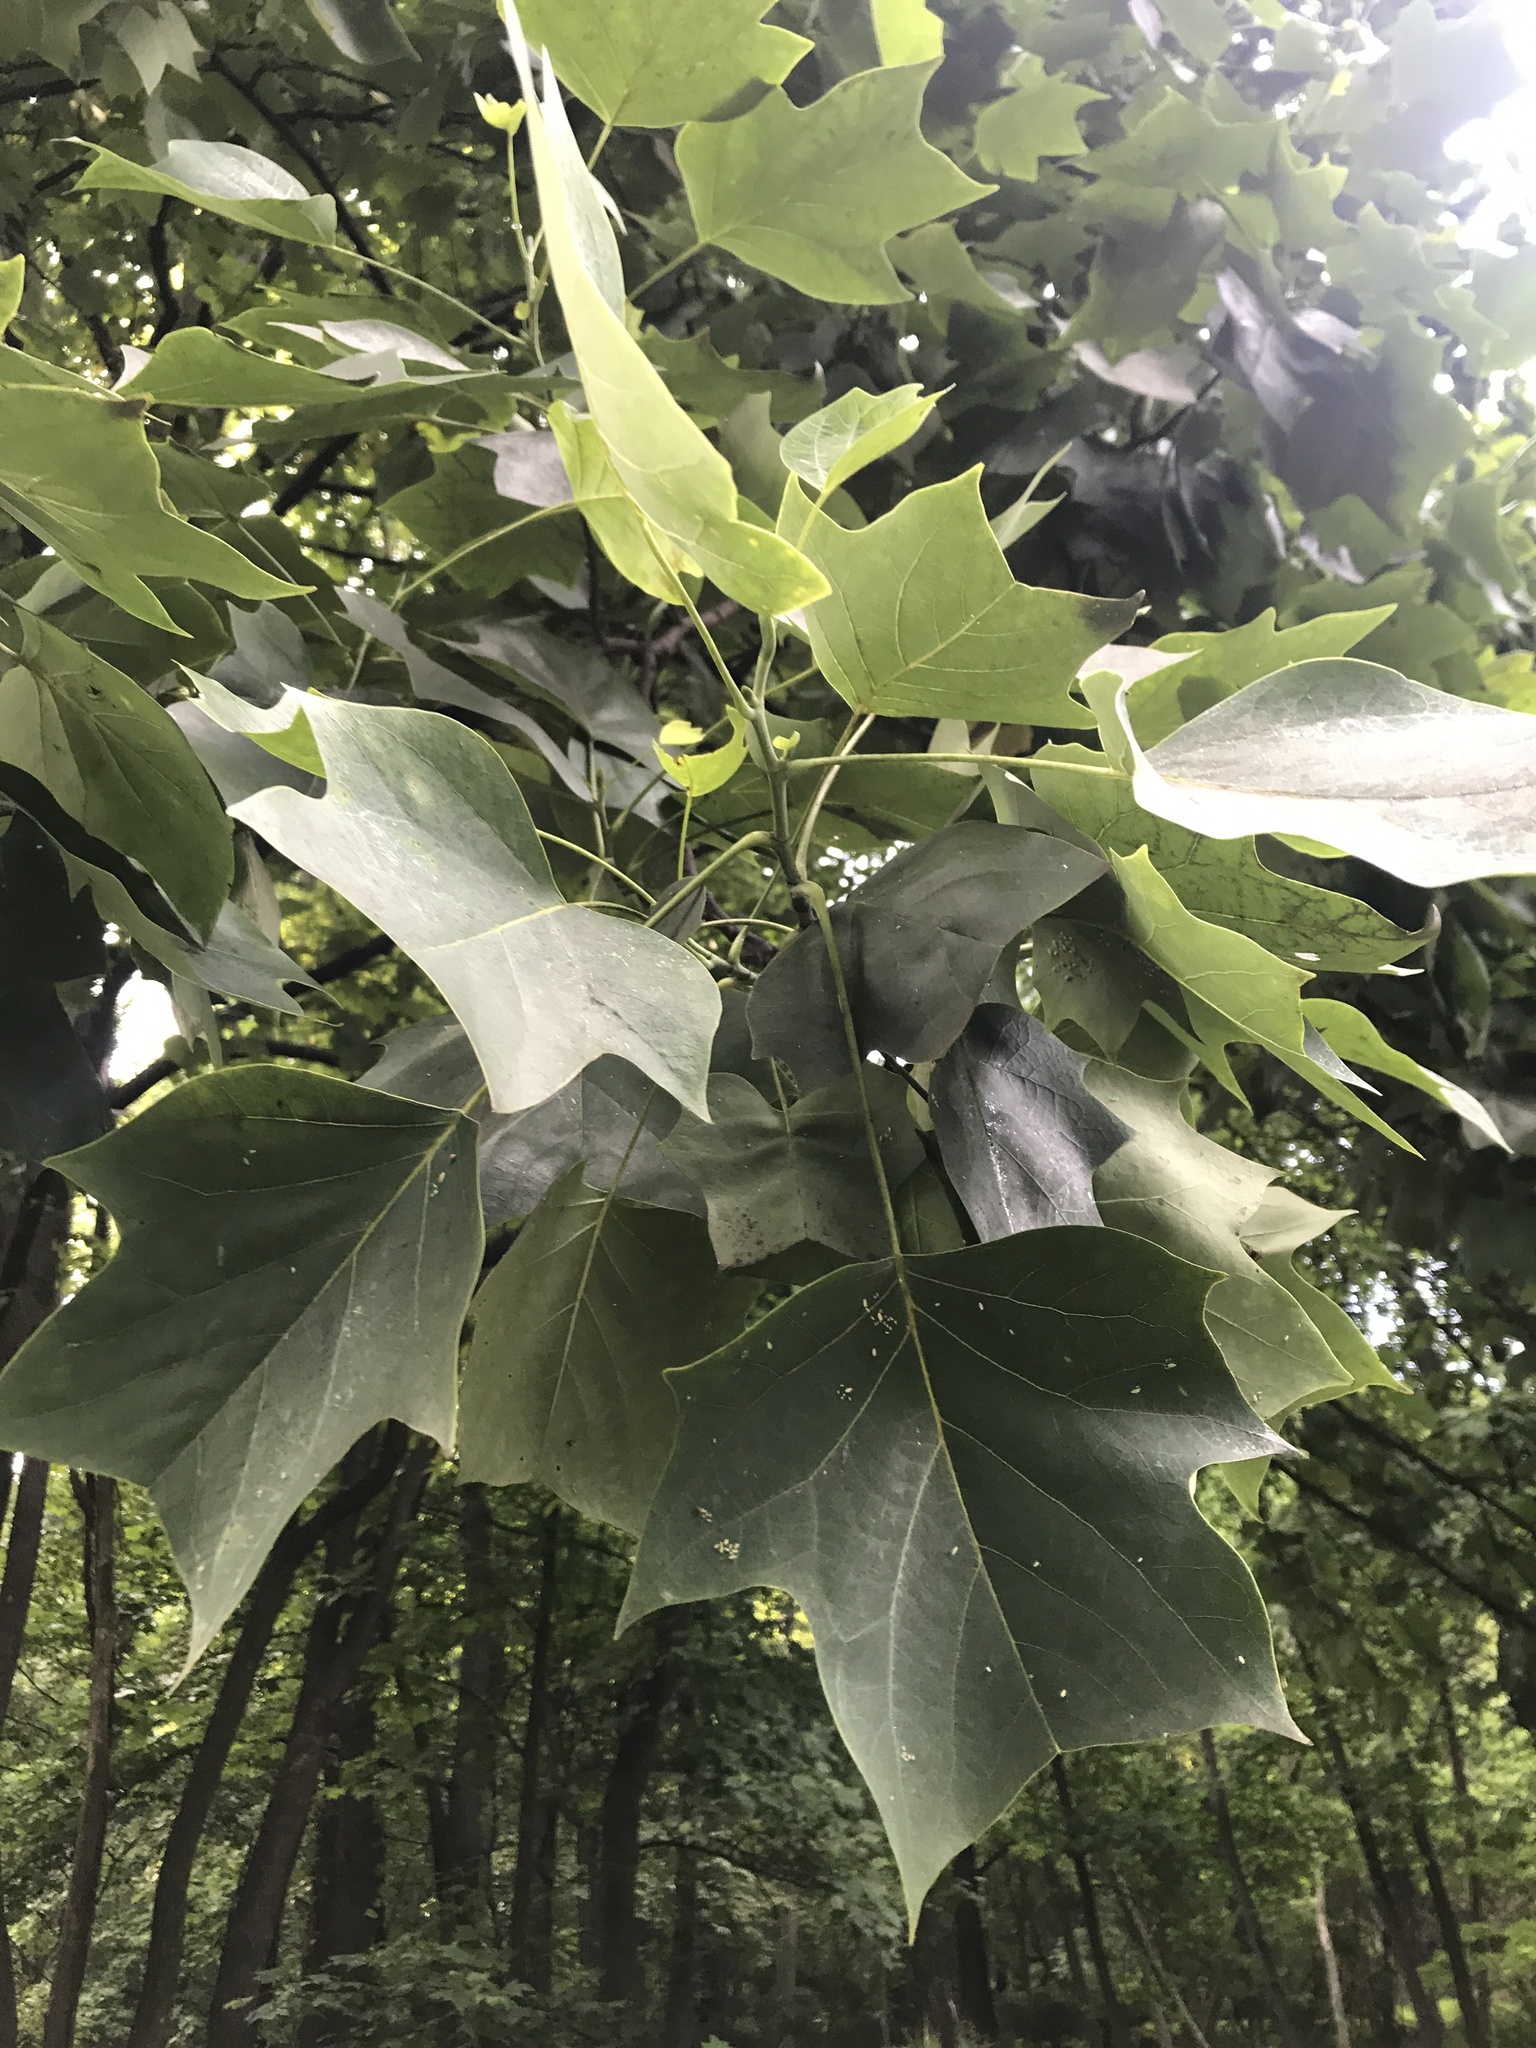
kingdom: Plantae
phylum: Tracheophyta
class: Magnoliopsida
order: Magnoliales
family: Magnoliaceae
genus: Liriodendron
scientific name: Liriodendron tulipifera
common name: Tulip tree
